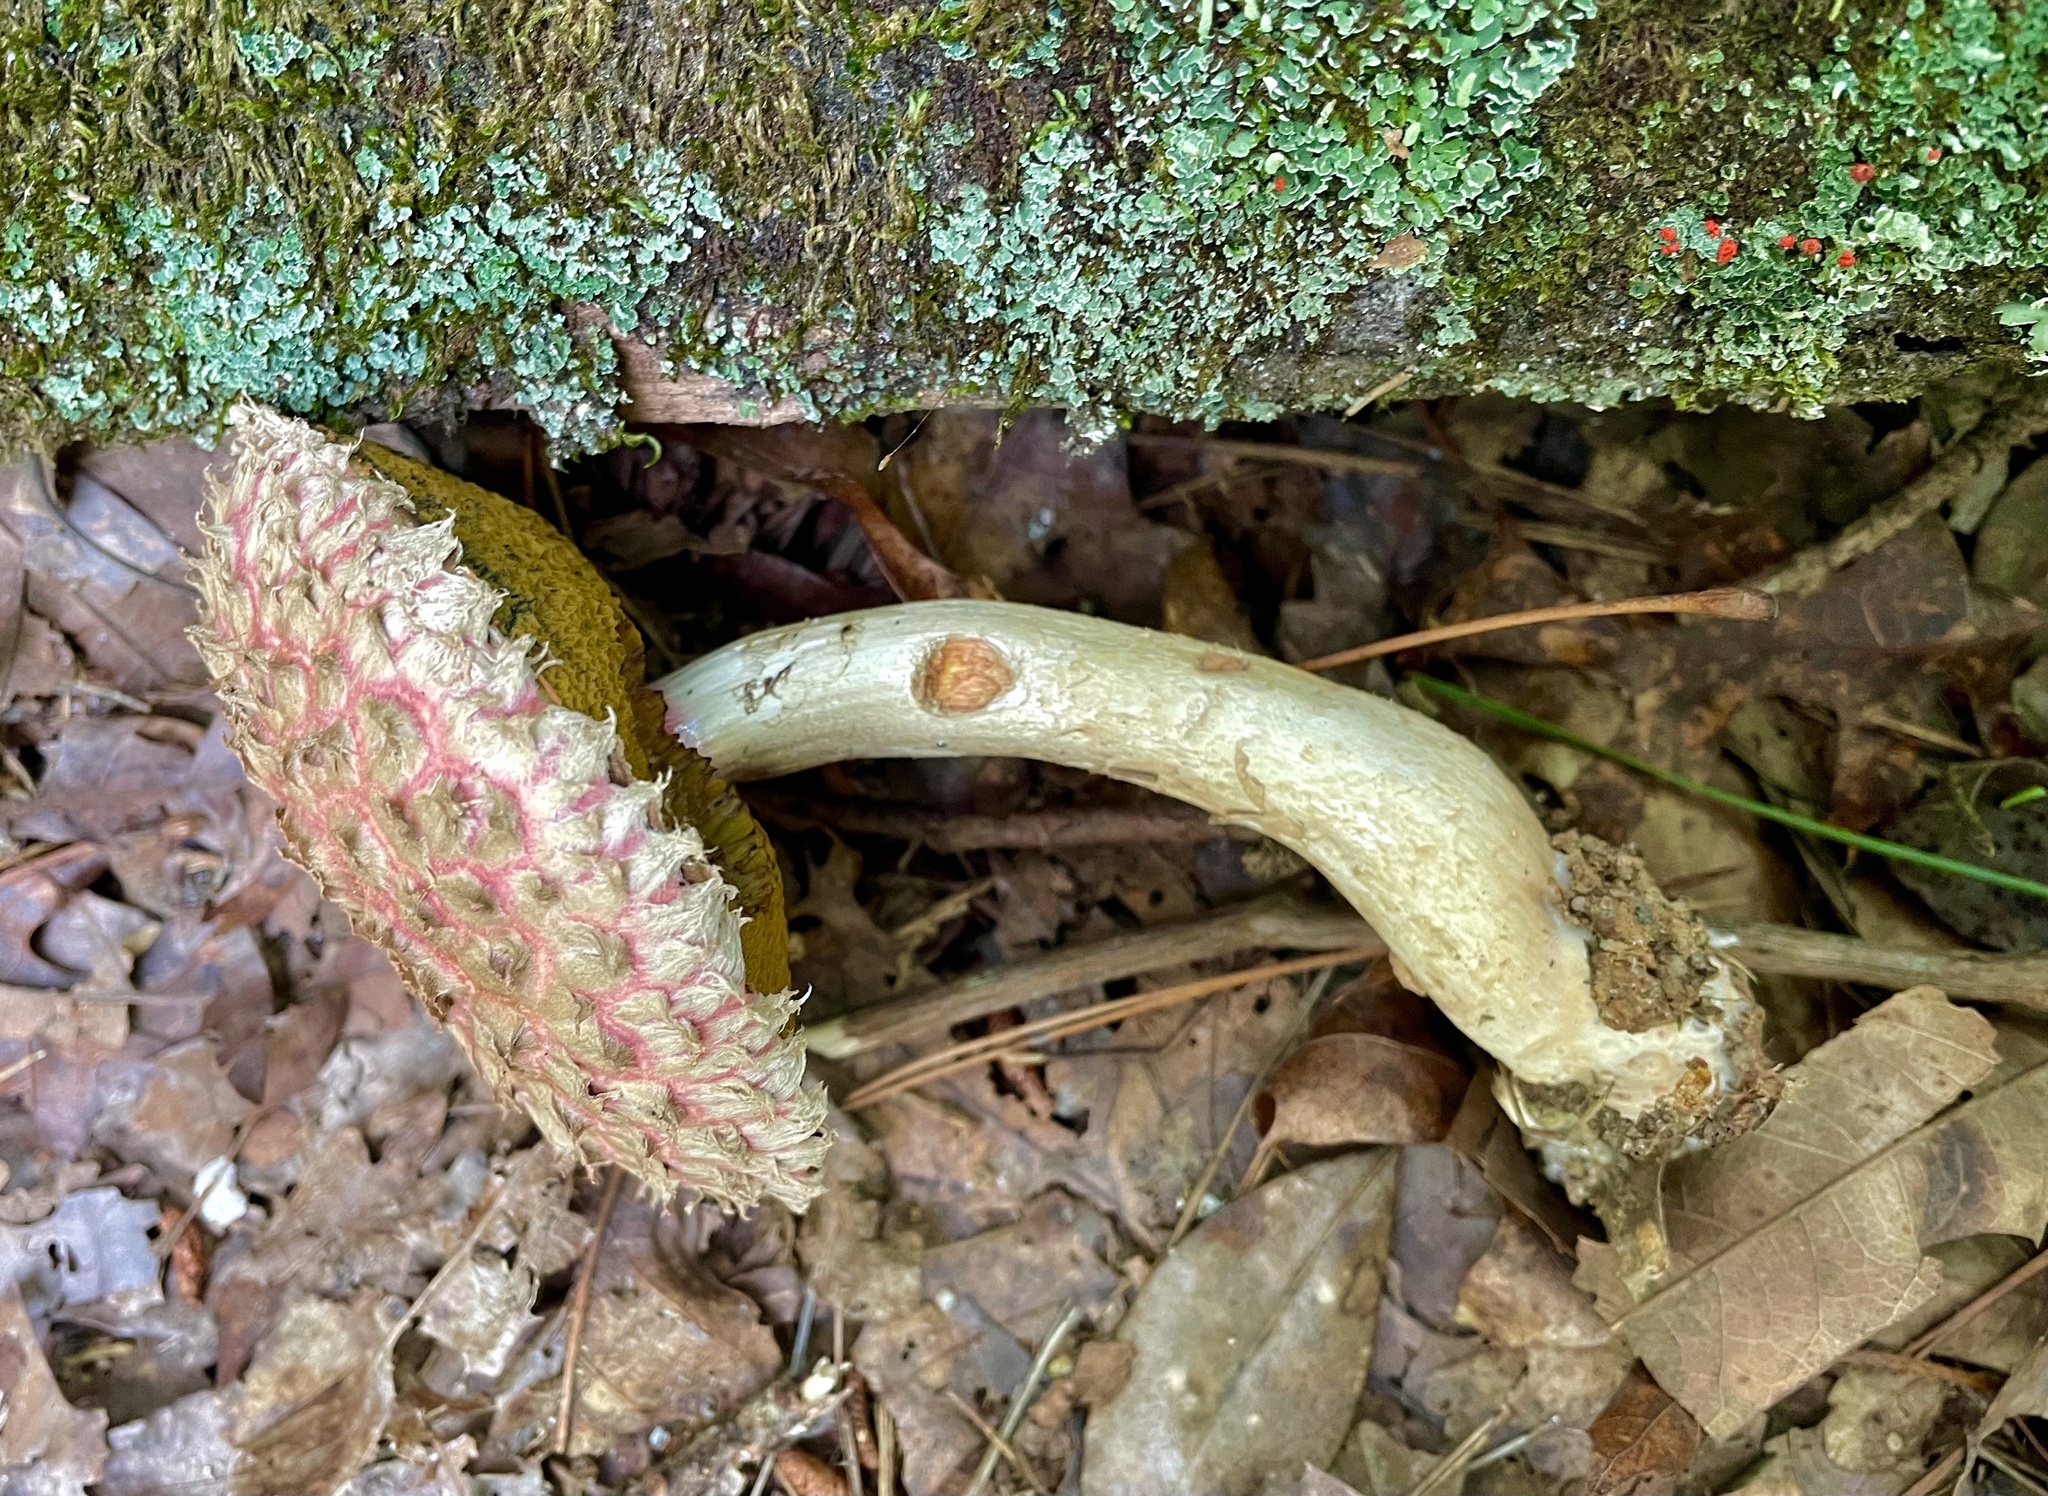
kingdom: Fungi
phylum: Basidiomycota
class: Agaricomycetes
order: Boletales
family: Boletaceae
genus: Boletellus
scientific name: Boletellus ananas
